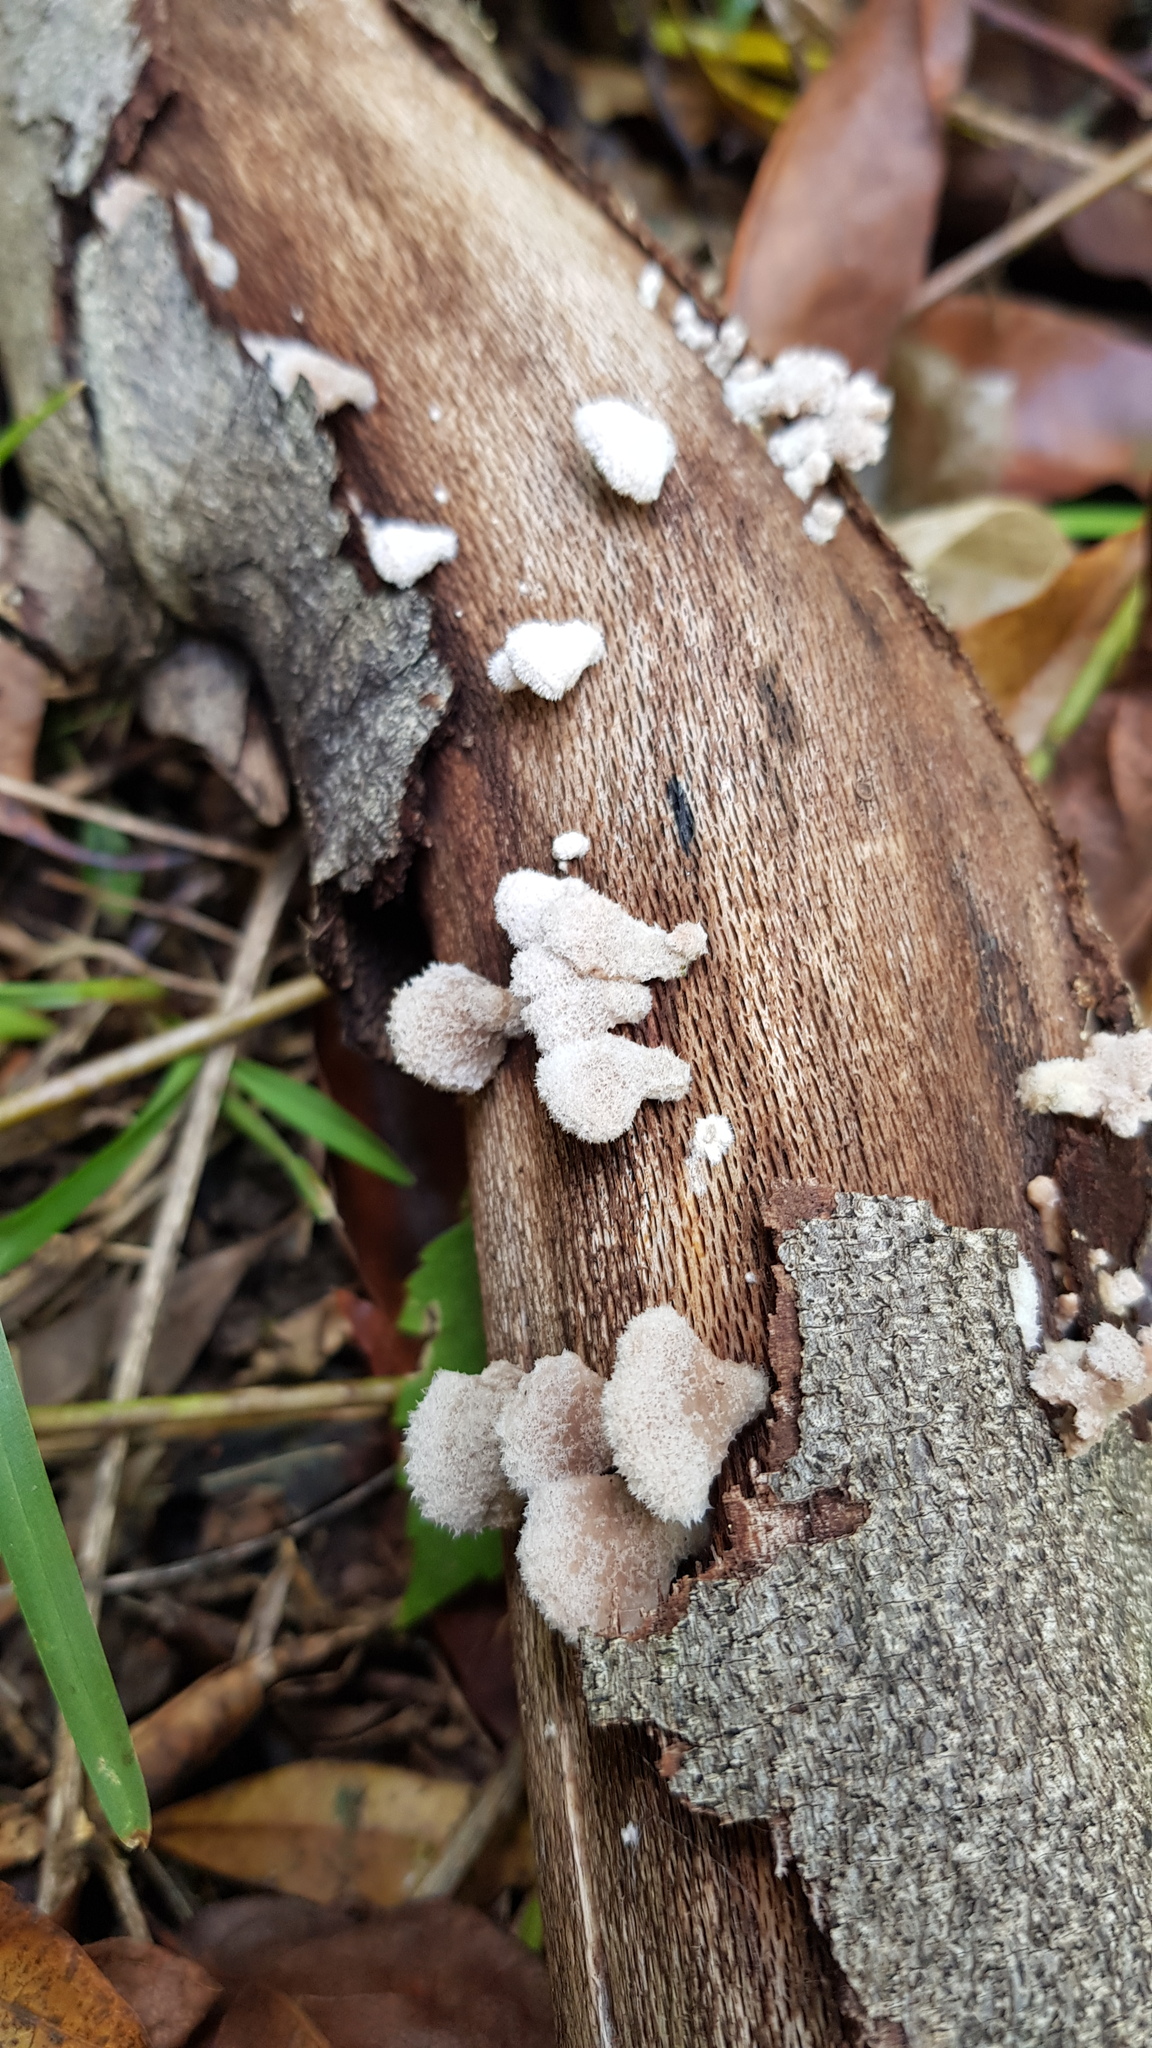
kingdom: Fungi
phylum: Basidiomycota
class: Agaricomycetes
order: Agaricales
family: Schizophyllaceae
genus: Schizophyllum
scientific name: Schizophyllum commune
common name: Common porecrust
